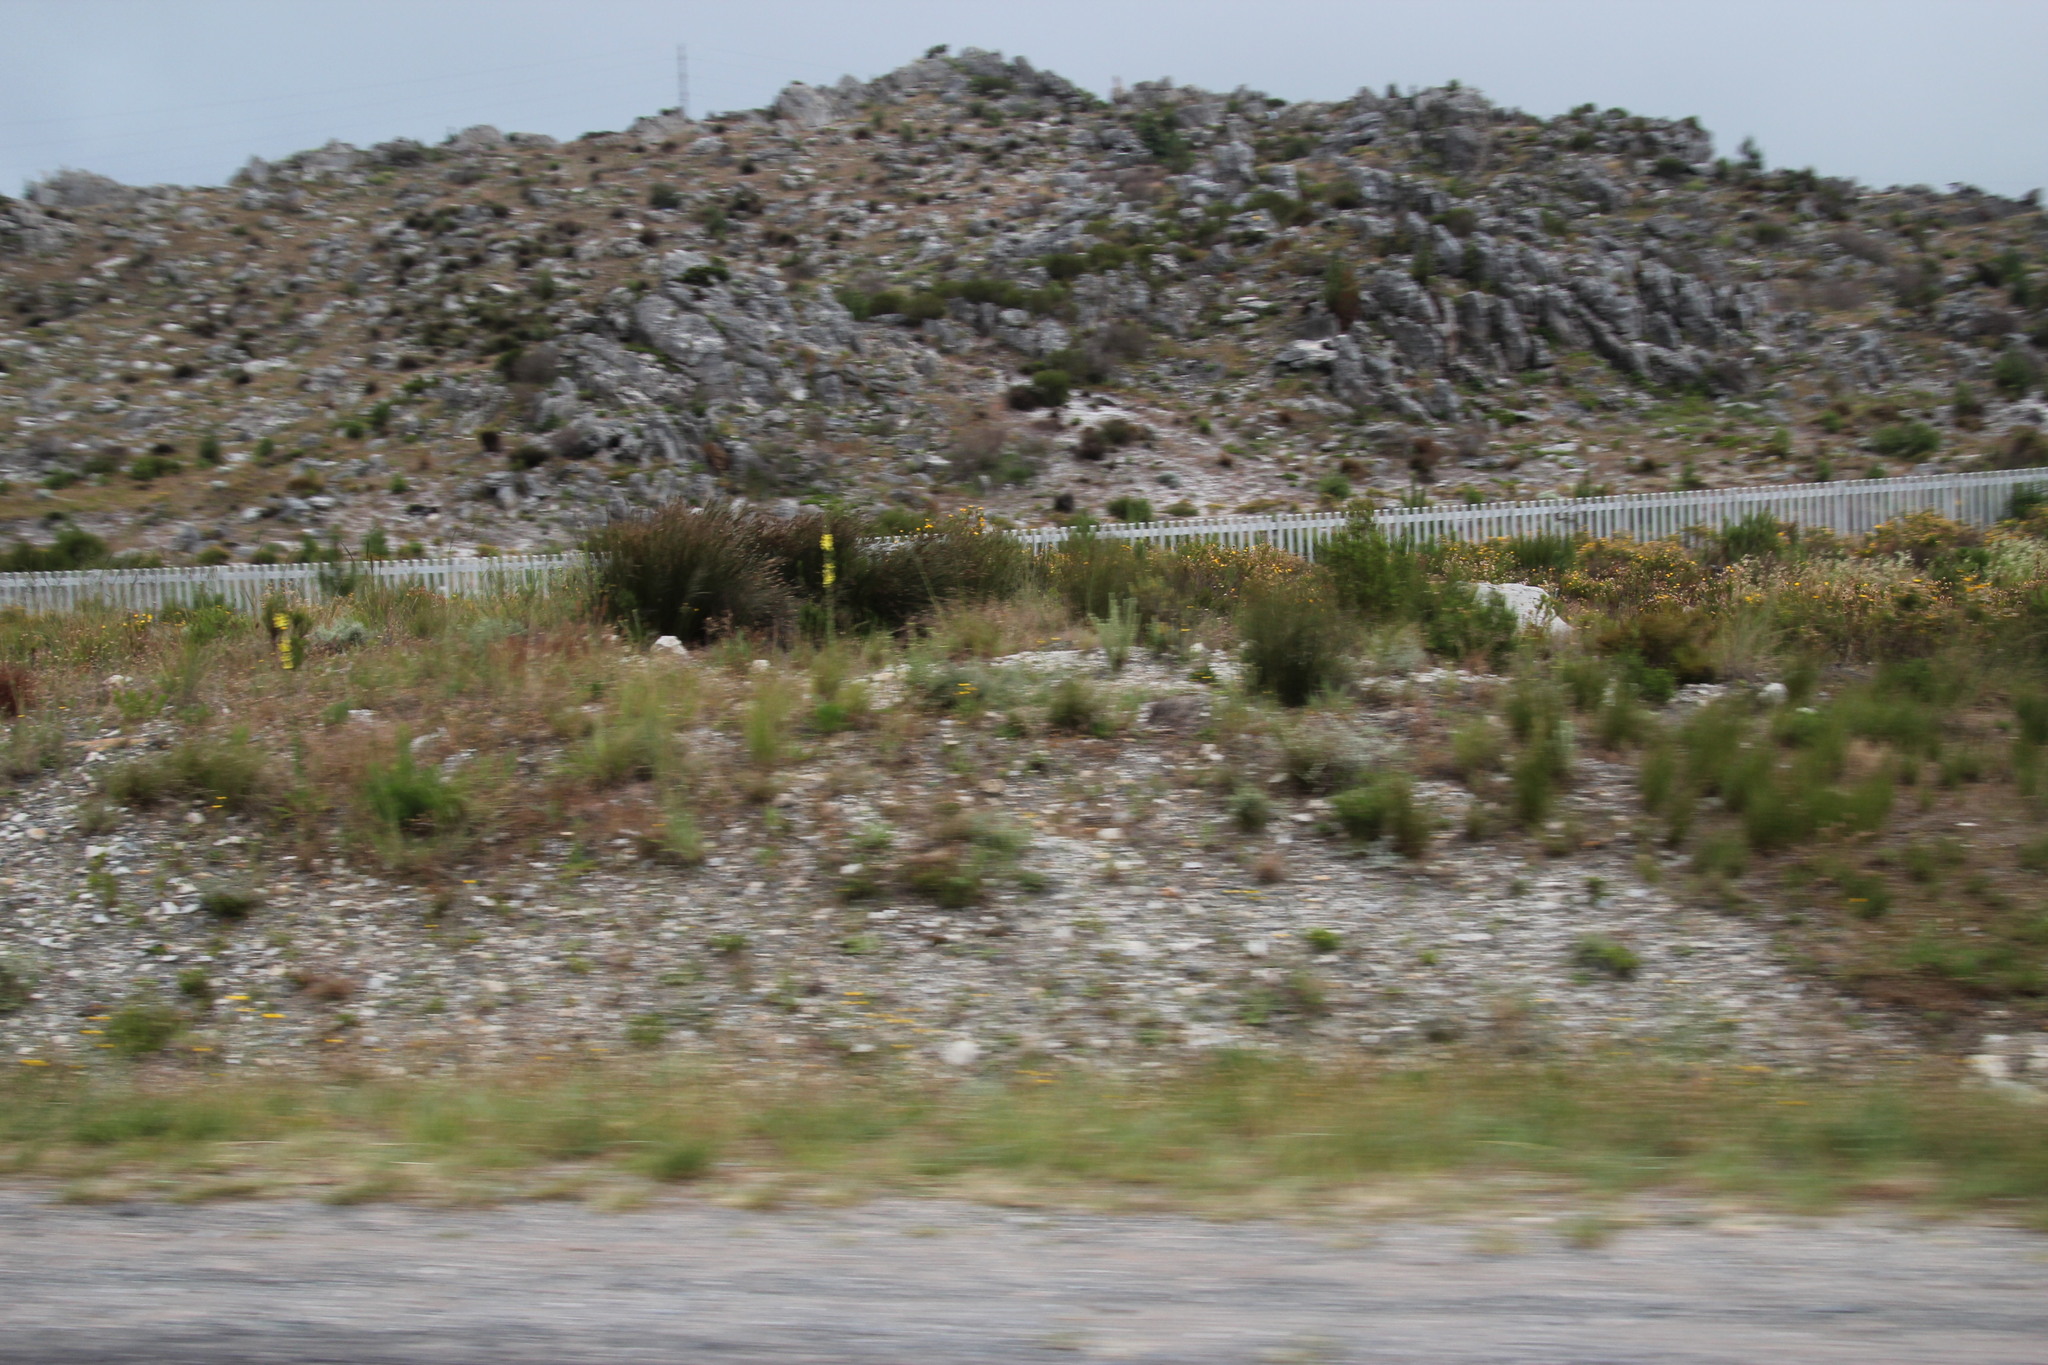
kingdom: Plantae
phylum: Tracheophyta
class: Magnoliopsida
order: Lamiales
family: Scrophulariaceae
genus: Verbascum
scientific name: Verbascum virgatum
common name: Twiggy mullein
